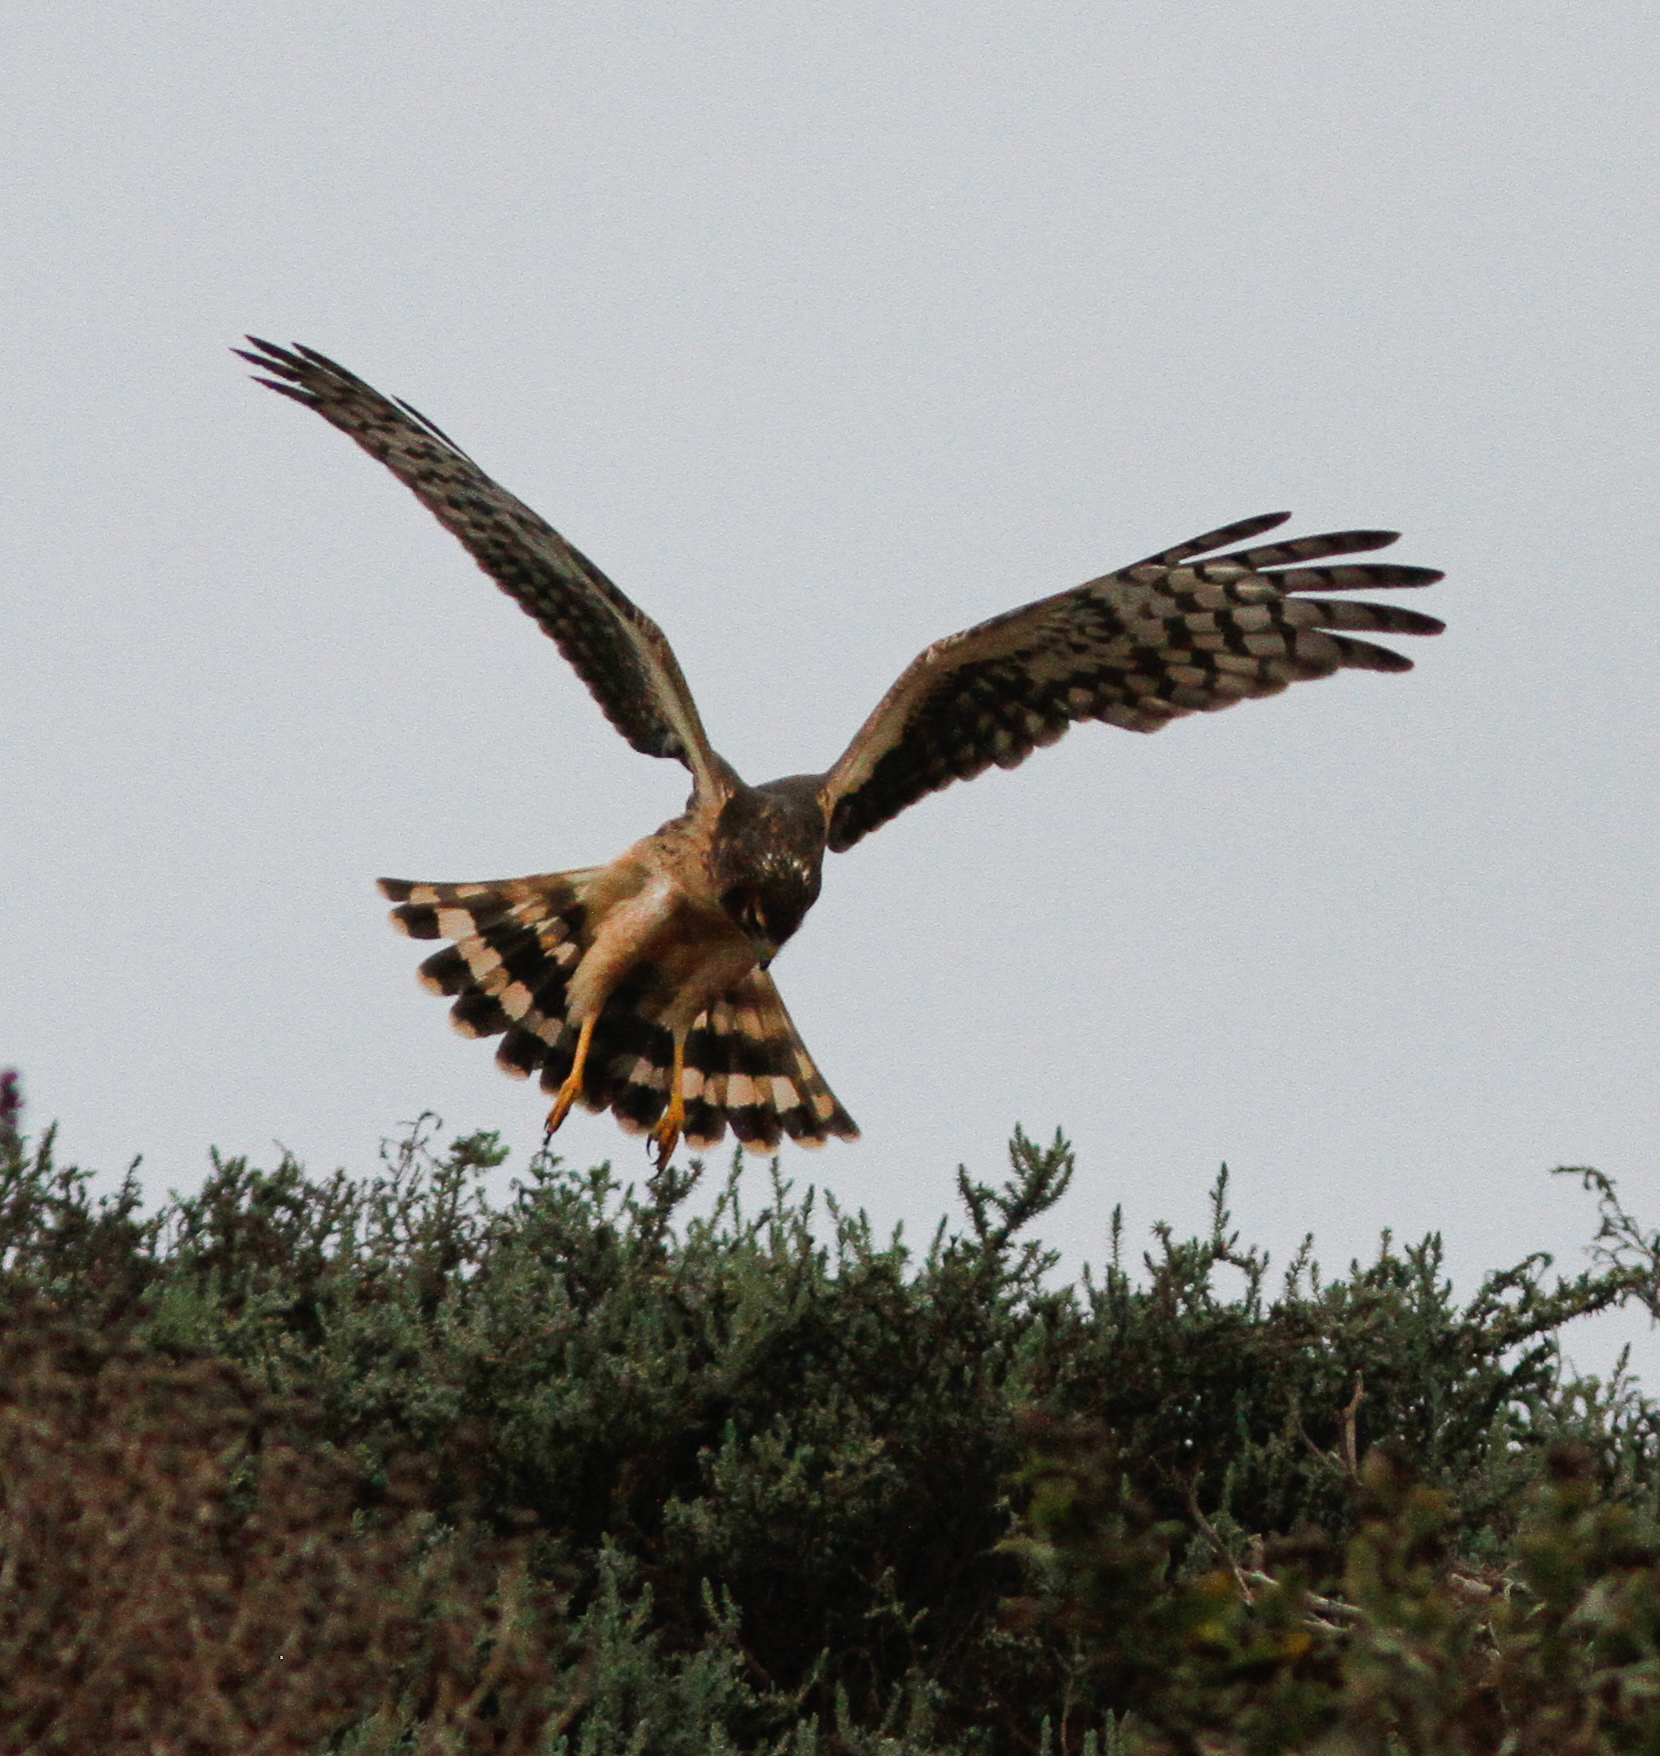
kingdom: Animalia
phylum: Chordata
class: Aves
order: Accipitriformes
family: Accipitridae
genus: Circus
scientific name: Circus cyaneus
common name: Hen harrier
